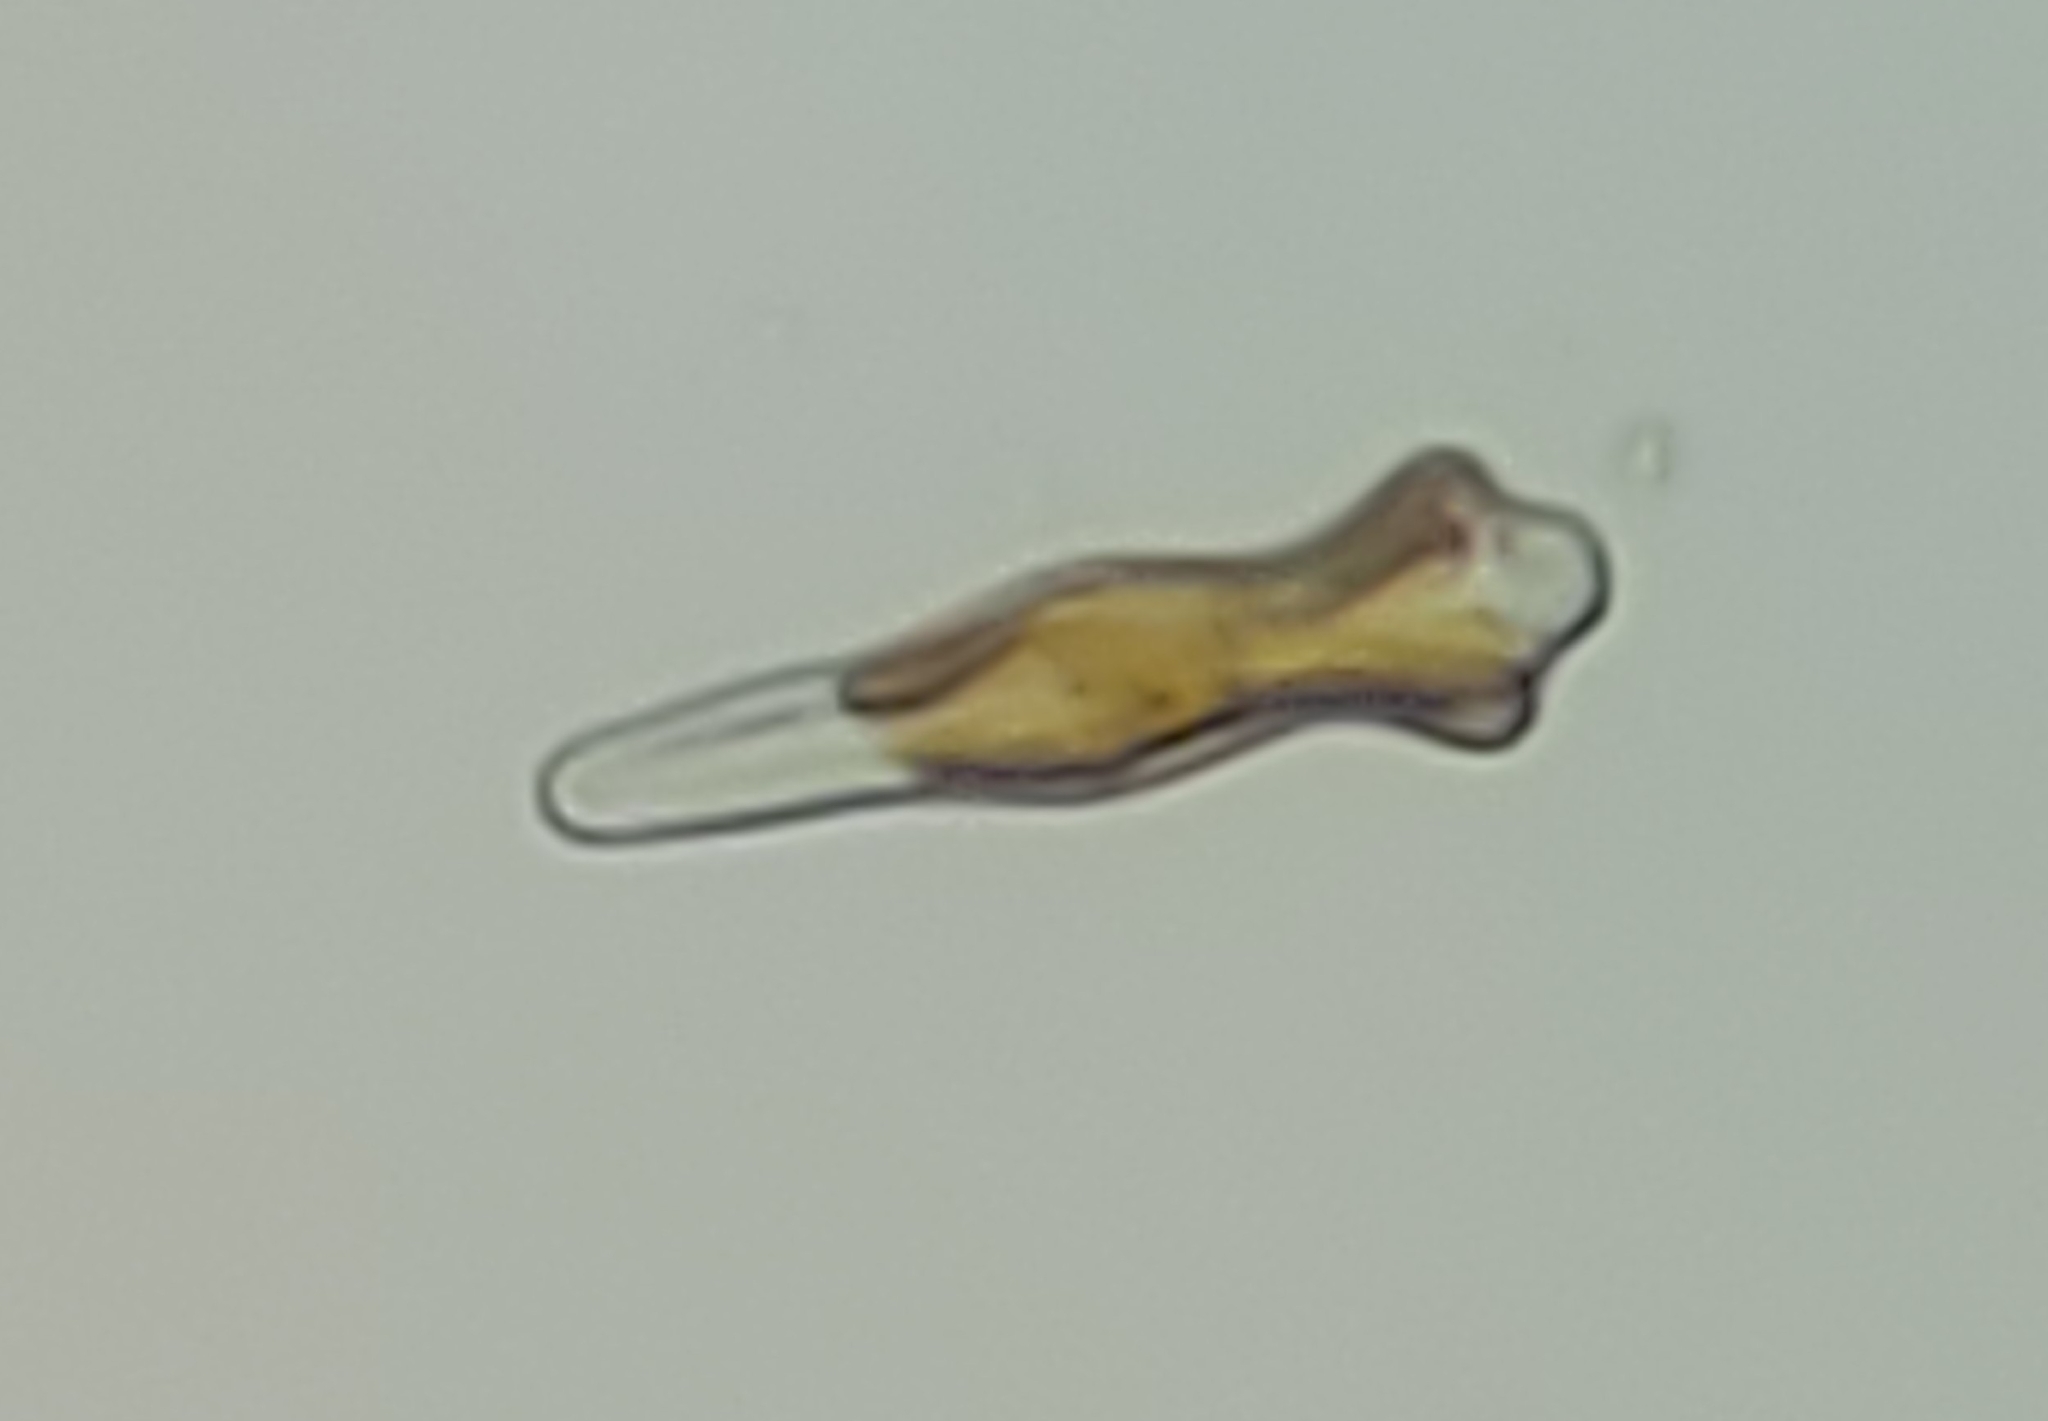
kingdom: Chromista
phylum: Ochrophyta
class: Bacillariophyceae
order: Cymbellales
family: Gomphonemataceae
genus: Gomphonema
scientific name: Gomphonema acuminatum
